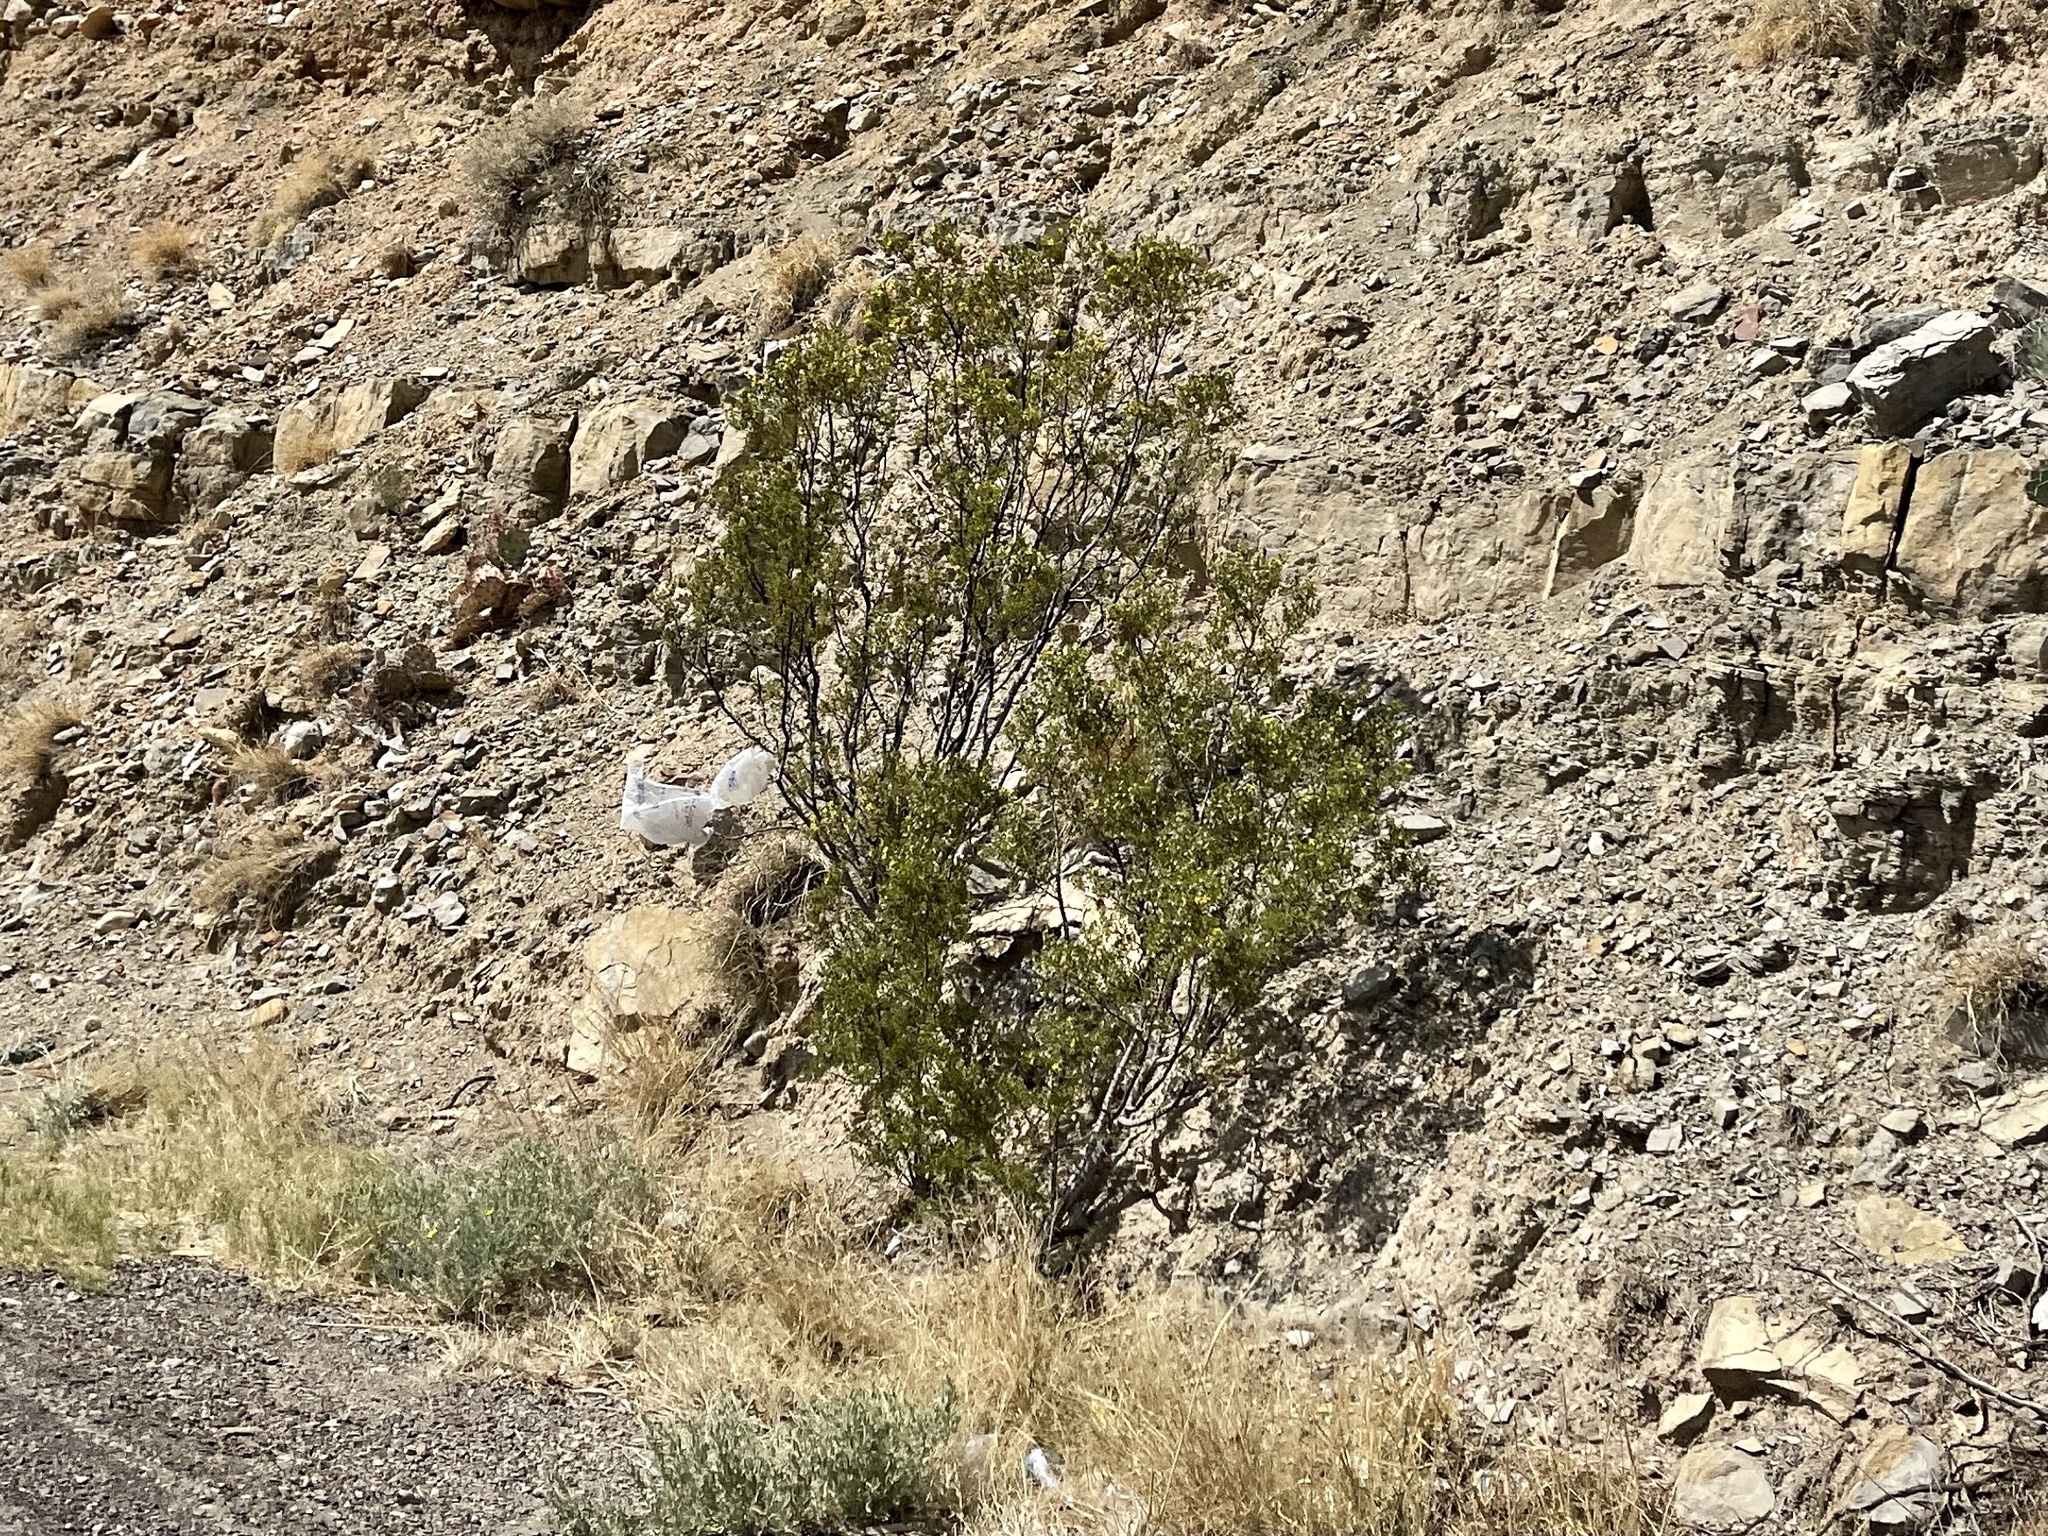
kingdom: Plantae
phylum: Tracheophyta
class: Magnoliopsida
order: Zygophyllales
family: Zygophyllaceae
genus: Larrea
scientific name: Larrea tridentata
